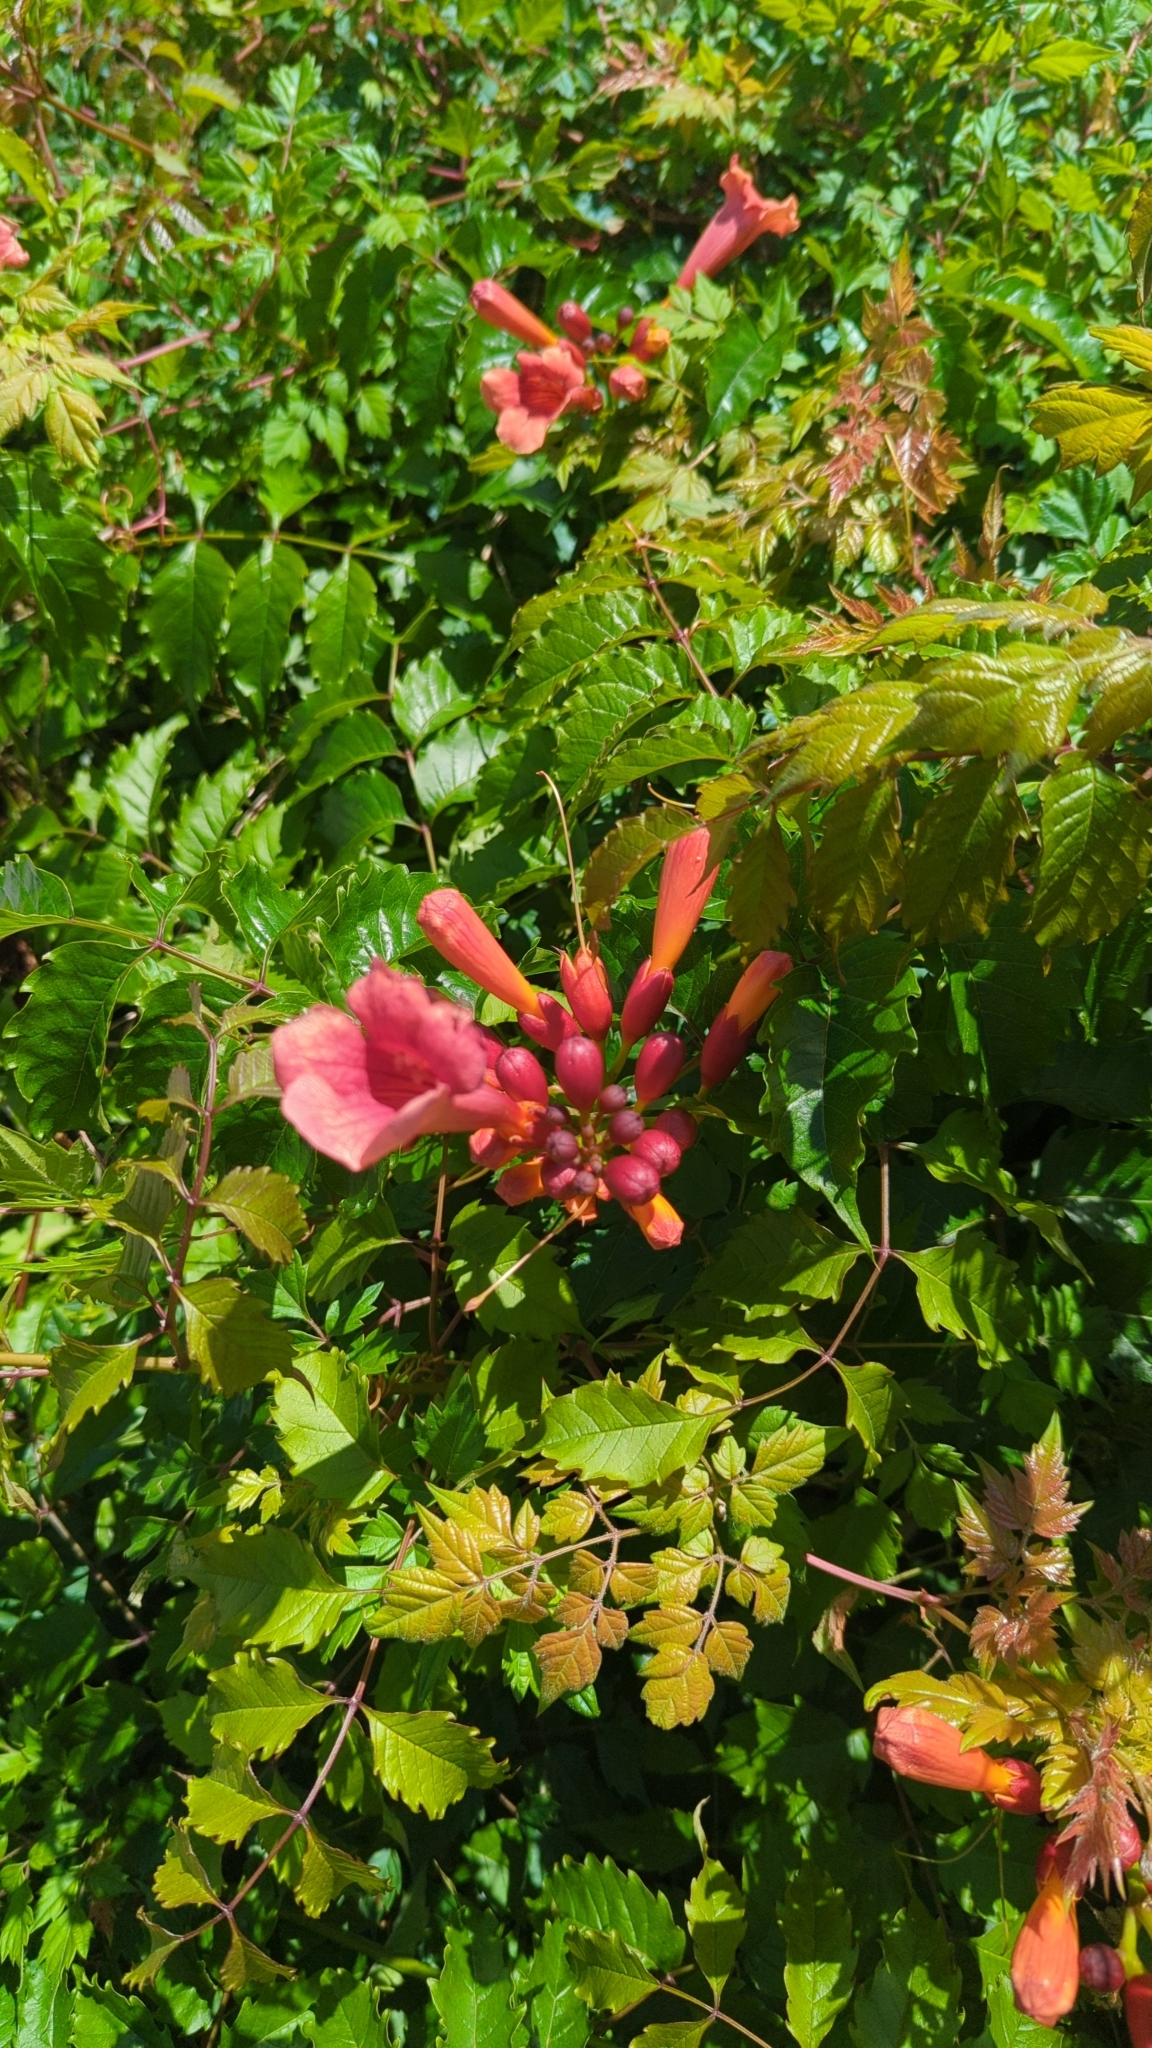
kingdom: Plantae
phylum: Tracheophyta
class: Magnoliopsida
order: Lamiales
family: Bignoniaceae
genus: Campsis
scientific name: Campsis radicans
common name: Trumpet-creeper
